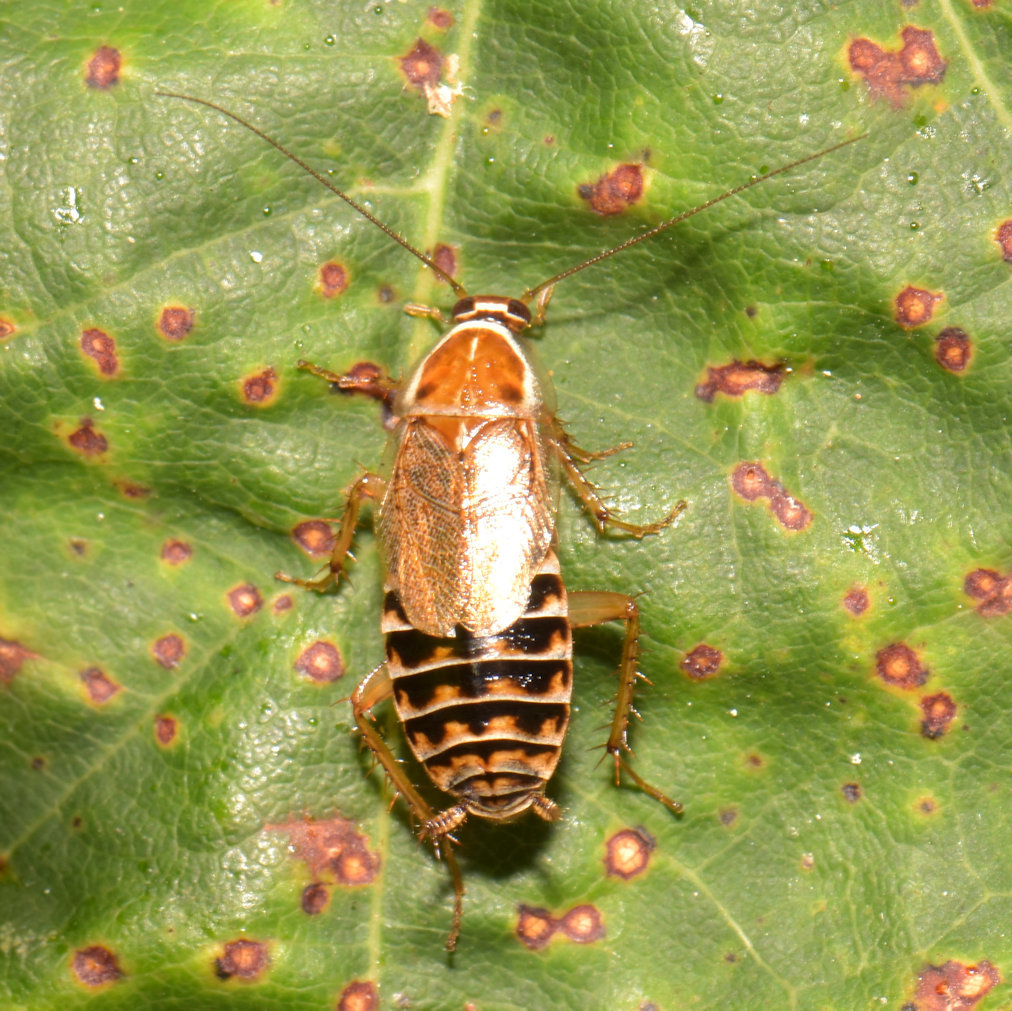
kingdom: Animalia
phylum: Arthropoda
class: Insecta
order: Blattodea
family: Ectobiidae
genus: Ectobius
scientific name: Ectobius lucidus
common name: Wood cockroach
